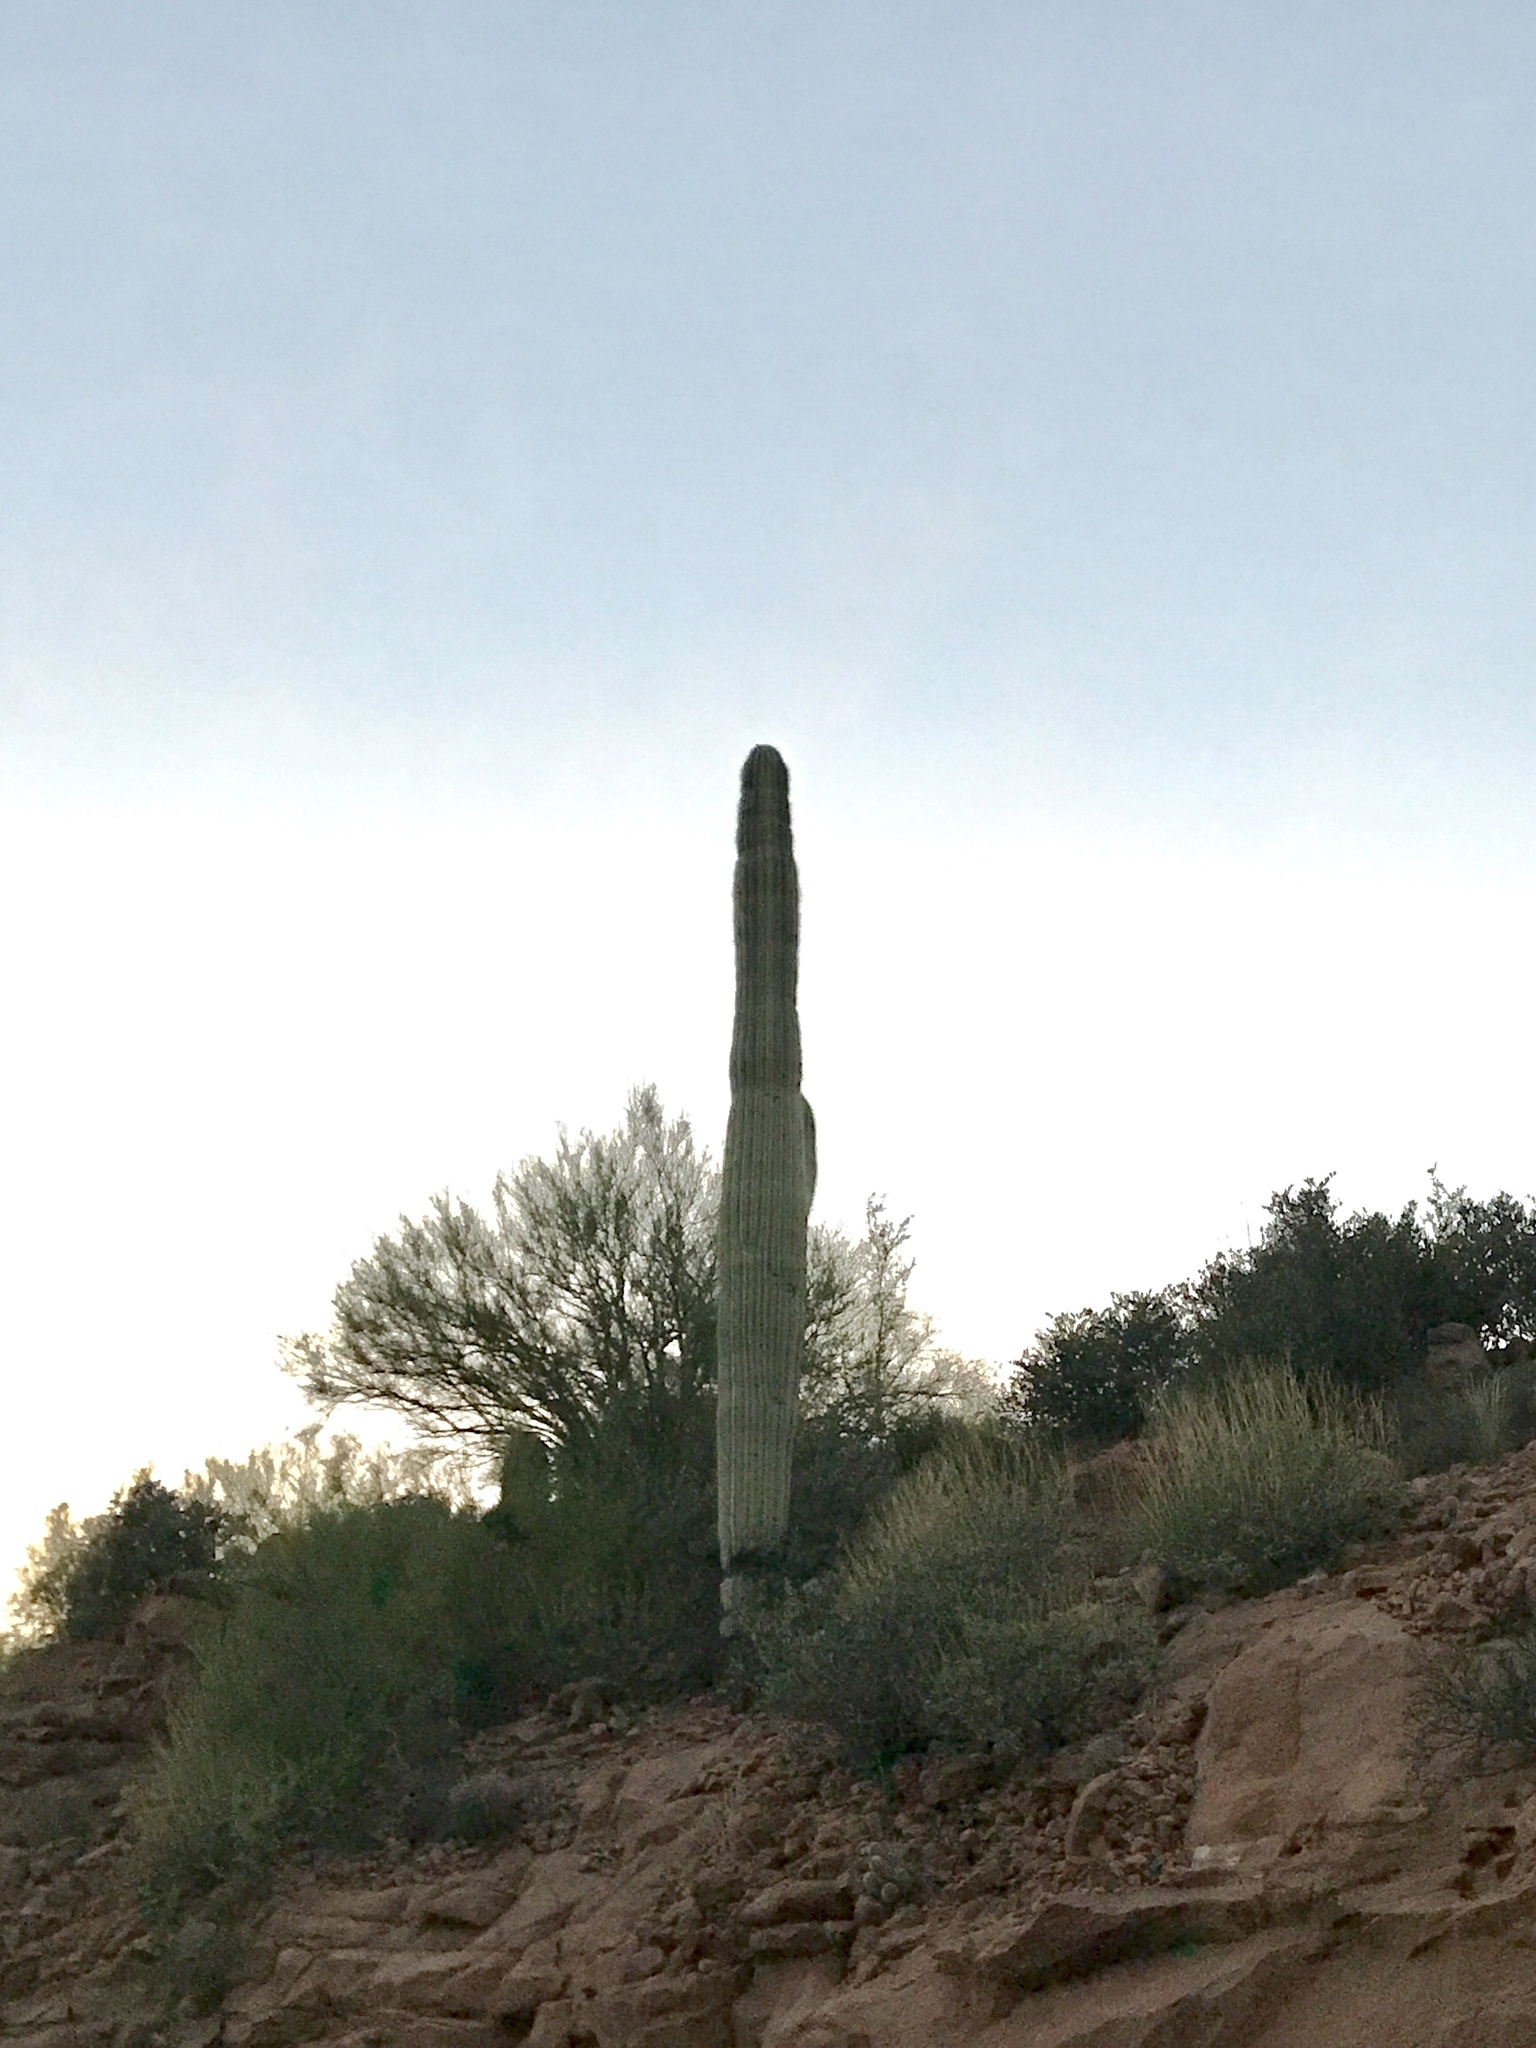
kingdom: Plantae
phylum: Tracheophyta
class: Magnoliopsida
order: Caryophyllales
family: Cactaceae
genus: Carnegiea
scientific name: Carnegiea gigantea
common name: Saguaro
